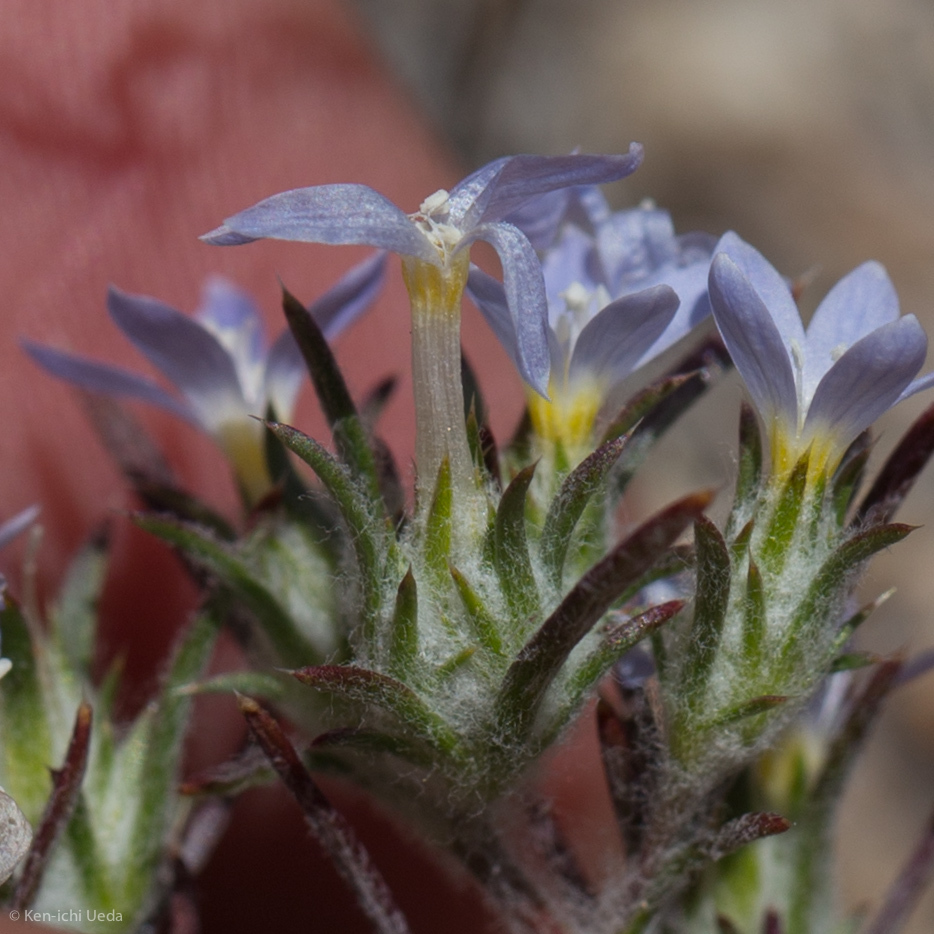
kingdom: Plantae
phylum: Tracheophyta
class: Magnoliopsida
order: Ericales
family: Polemoniaceae
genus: Eriastrum
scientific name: Eriastrum diffusum
